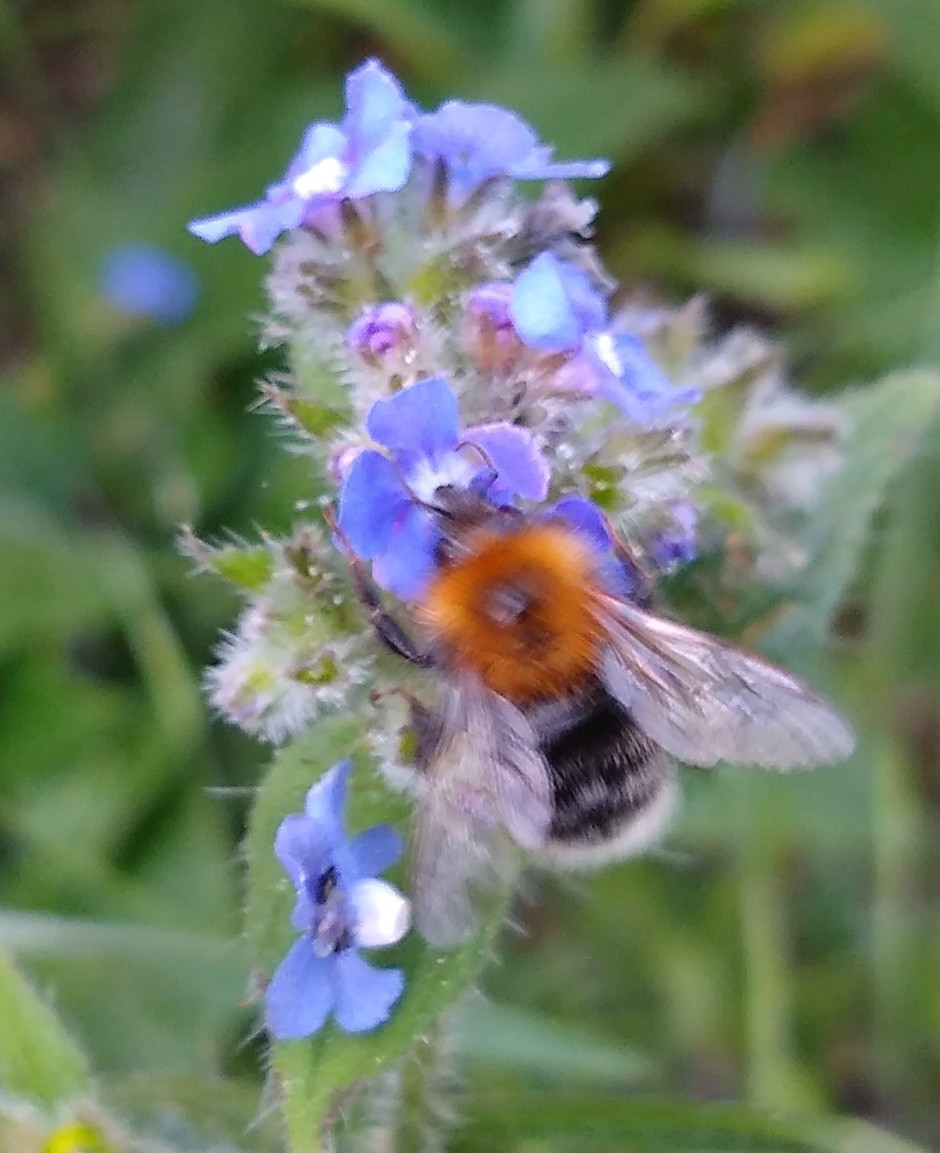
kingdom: Animalia
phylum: Arthropoda
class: Insecta
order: Hymenoptera
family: Apidae
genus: Bombus
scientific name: Bombus hypnorum
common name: New garden bumblebee
